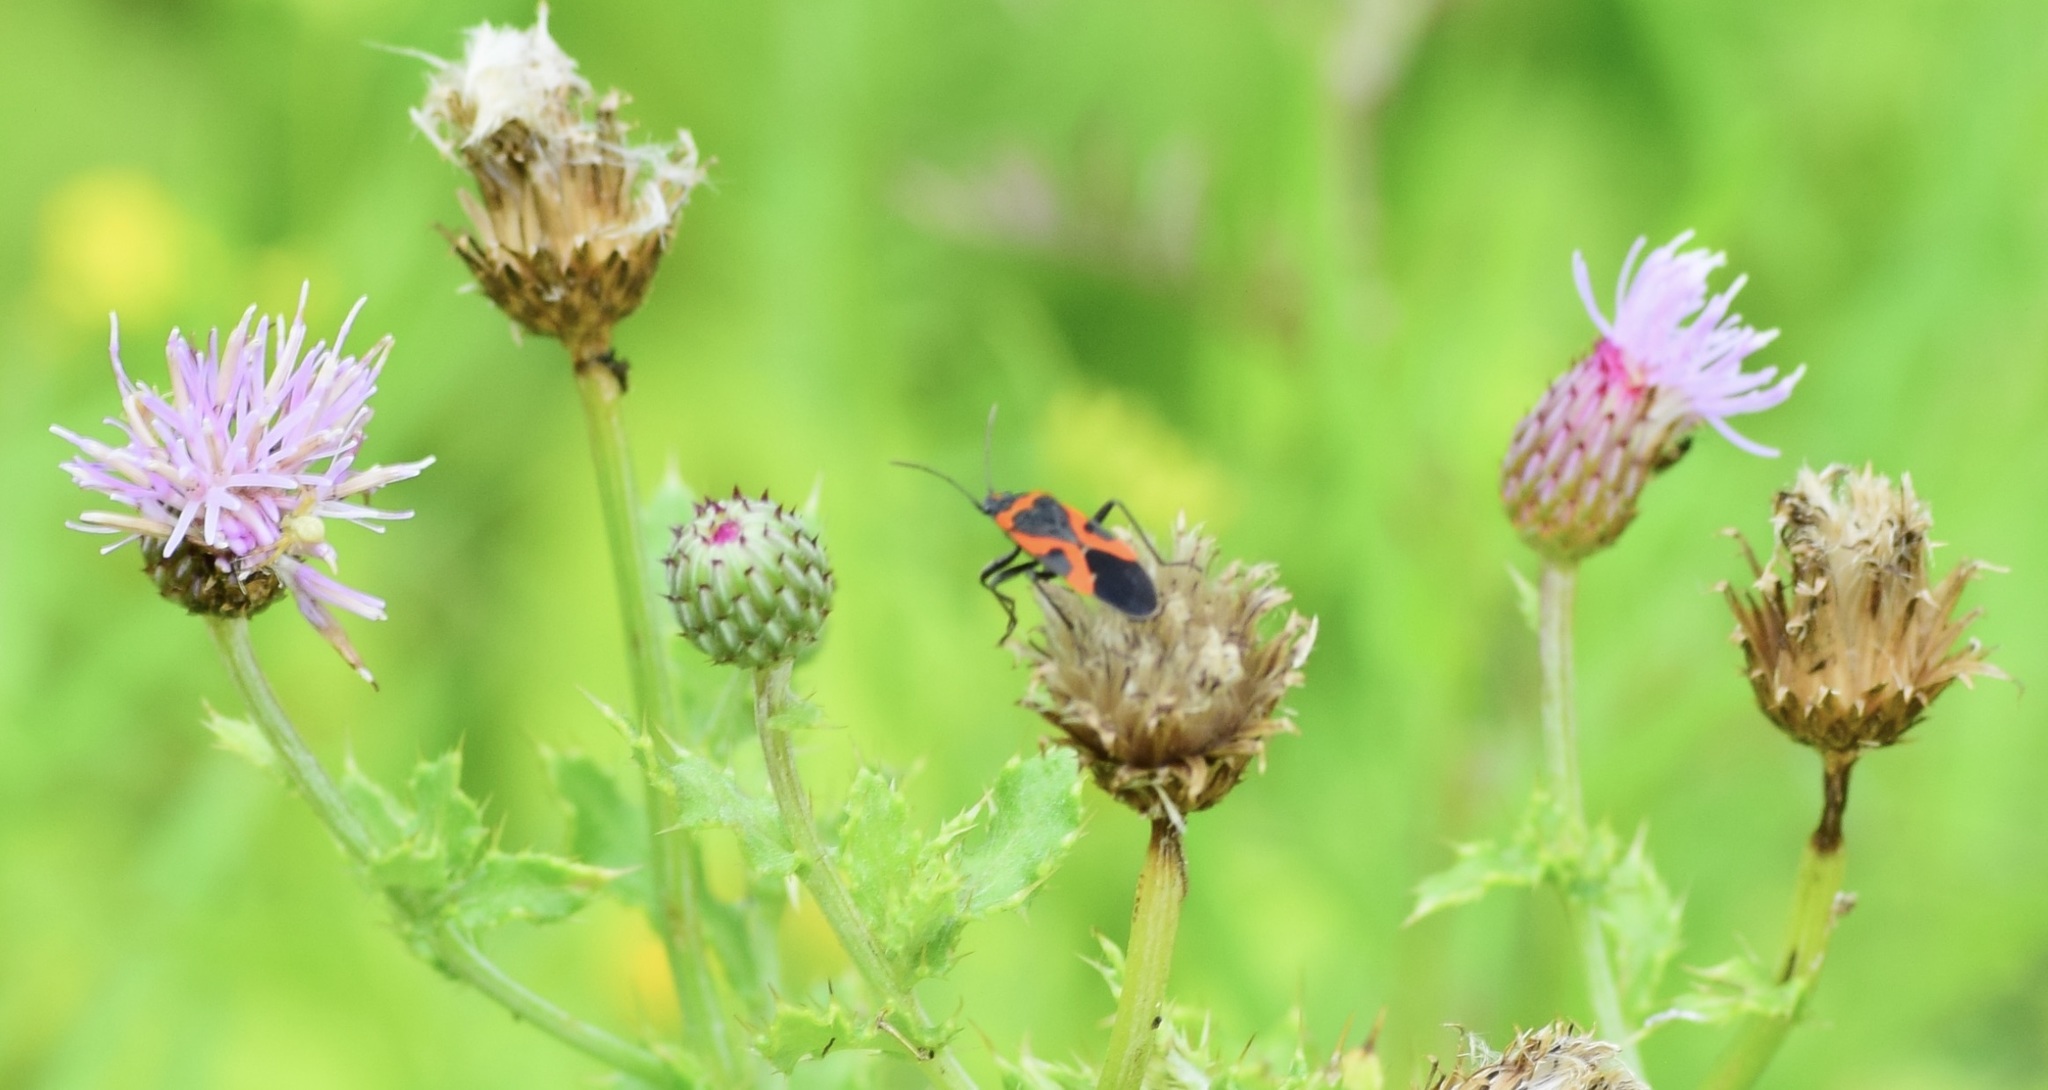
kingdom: Animalia
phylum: Arthropoda
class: Insecta
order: Hemiptera
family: Lygaeidae
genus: Lygaeus
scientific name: Lygaeus kalmii
